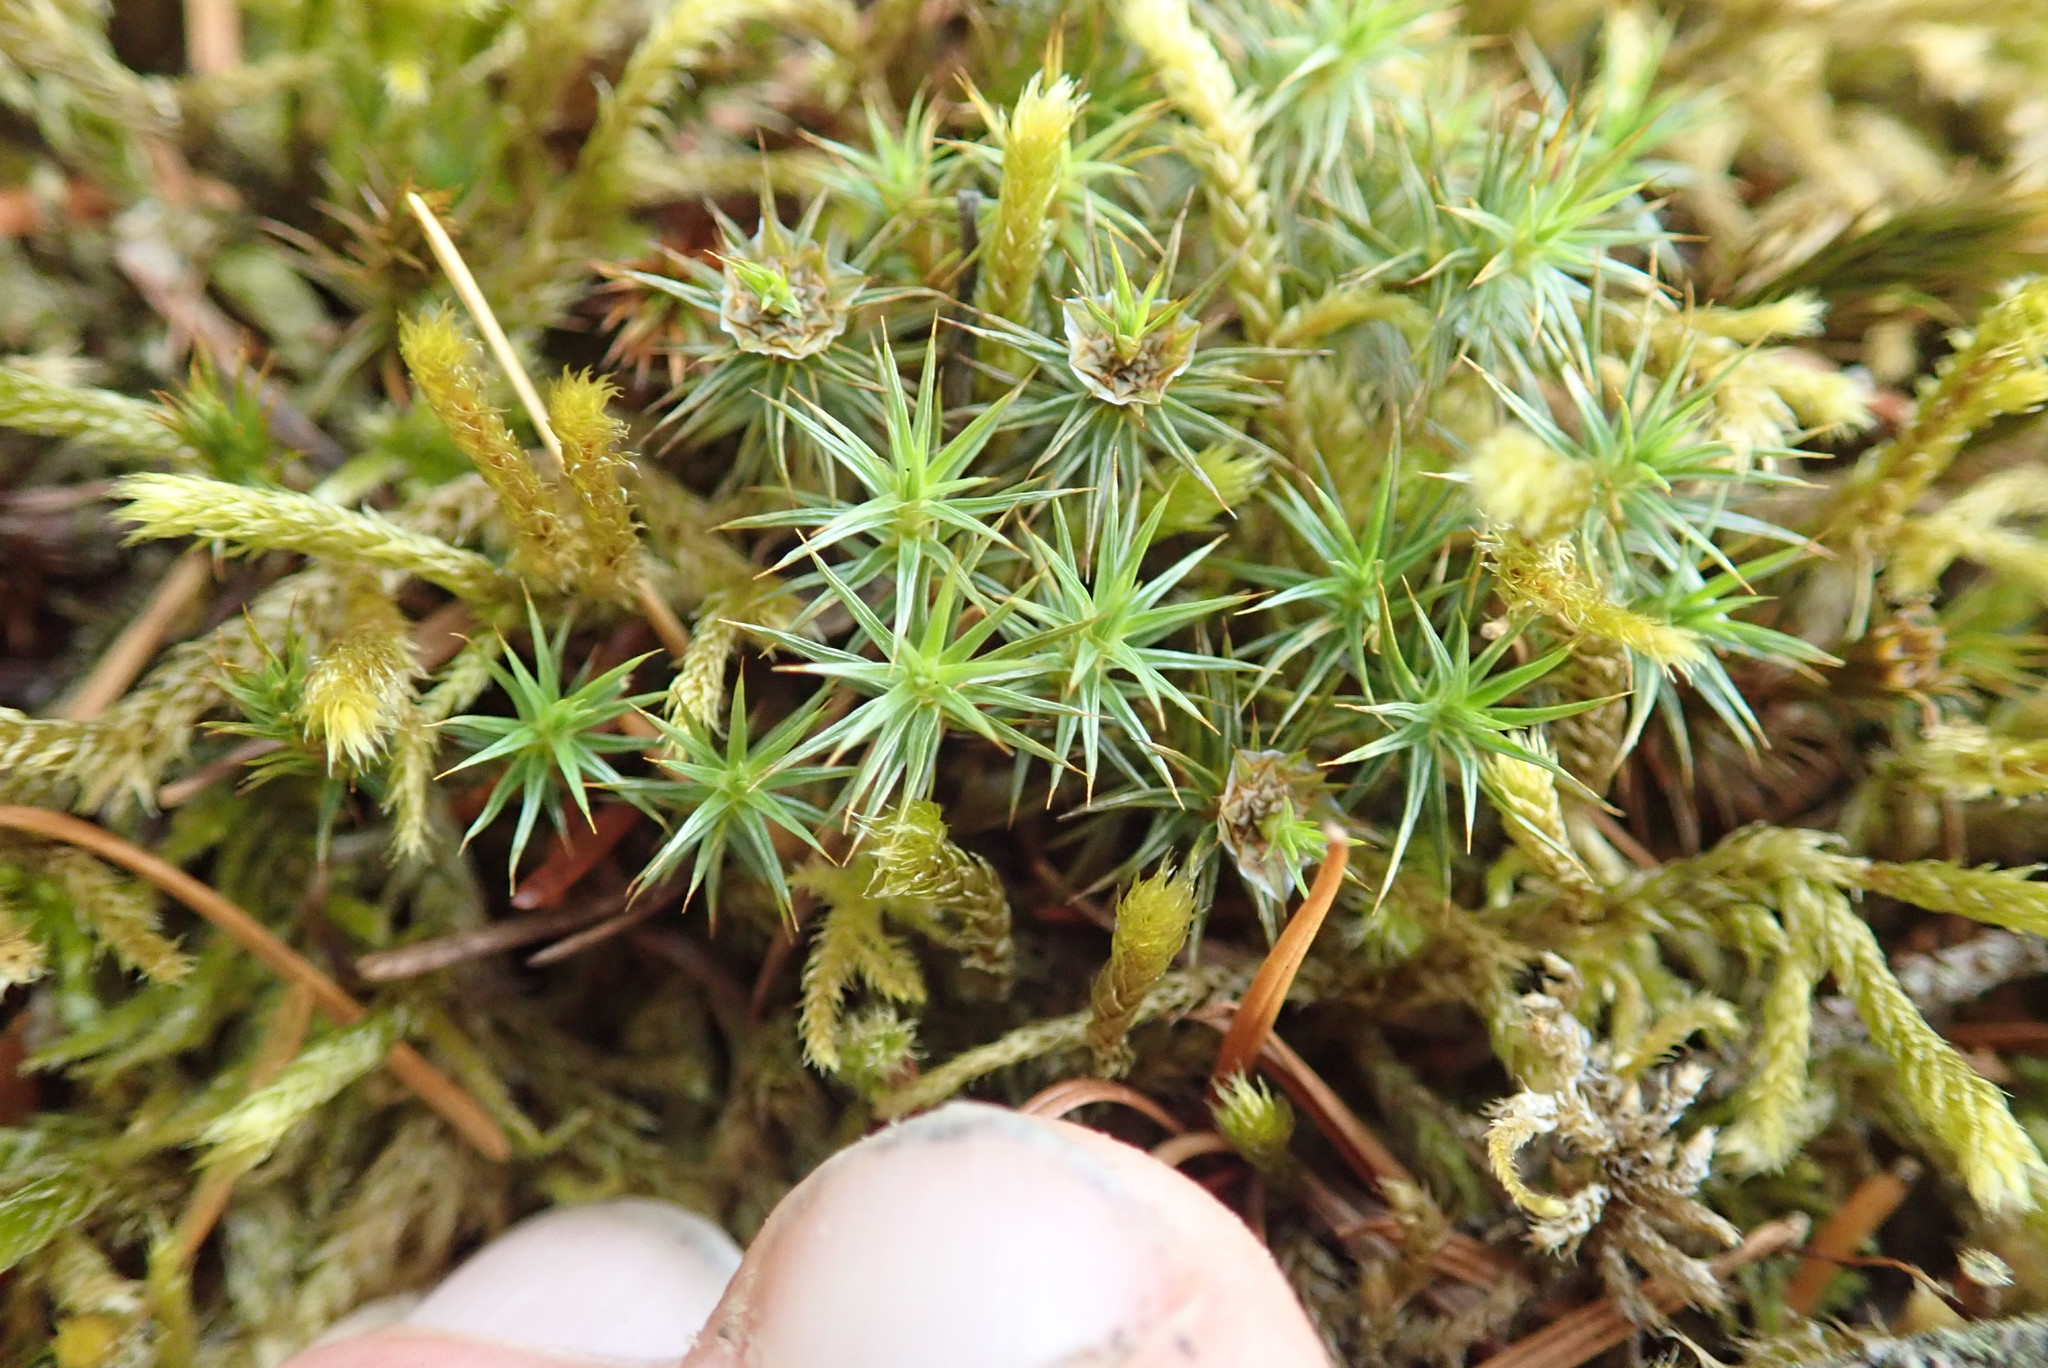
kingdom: Plantae
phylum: Bryophyta
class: Polytrichopsida
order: Polytrichales
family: Polytrichaceae
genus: Polytrichum
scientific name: Polytrichum juniperinum
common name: Juniper haircap moss
